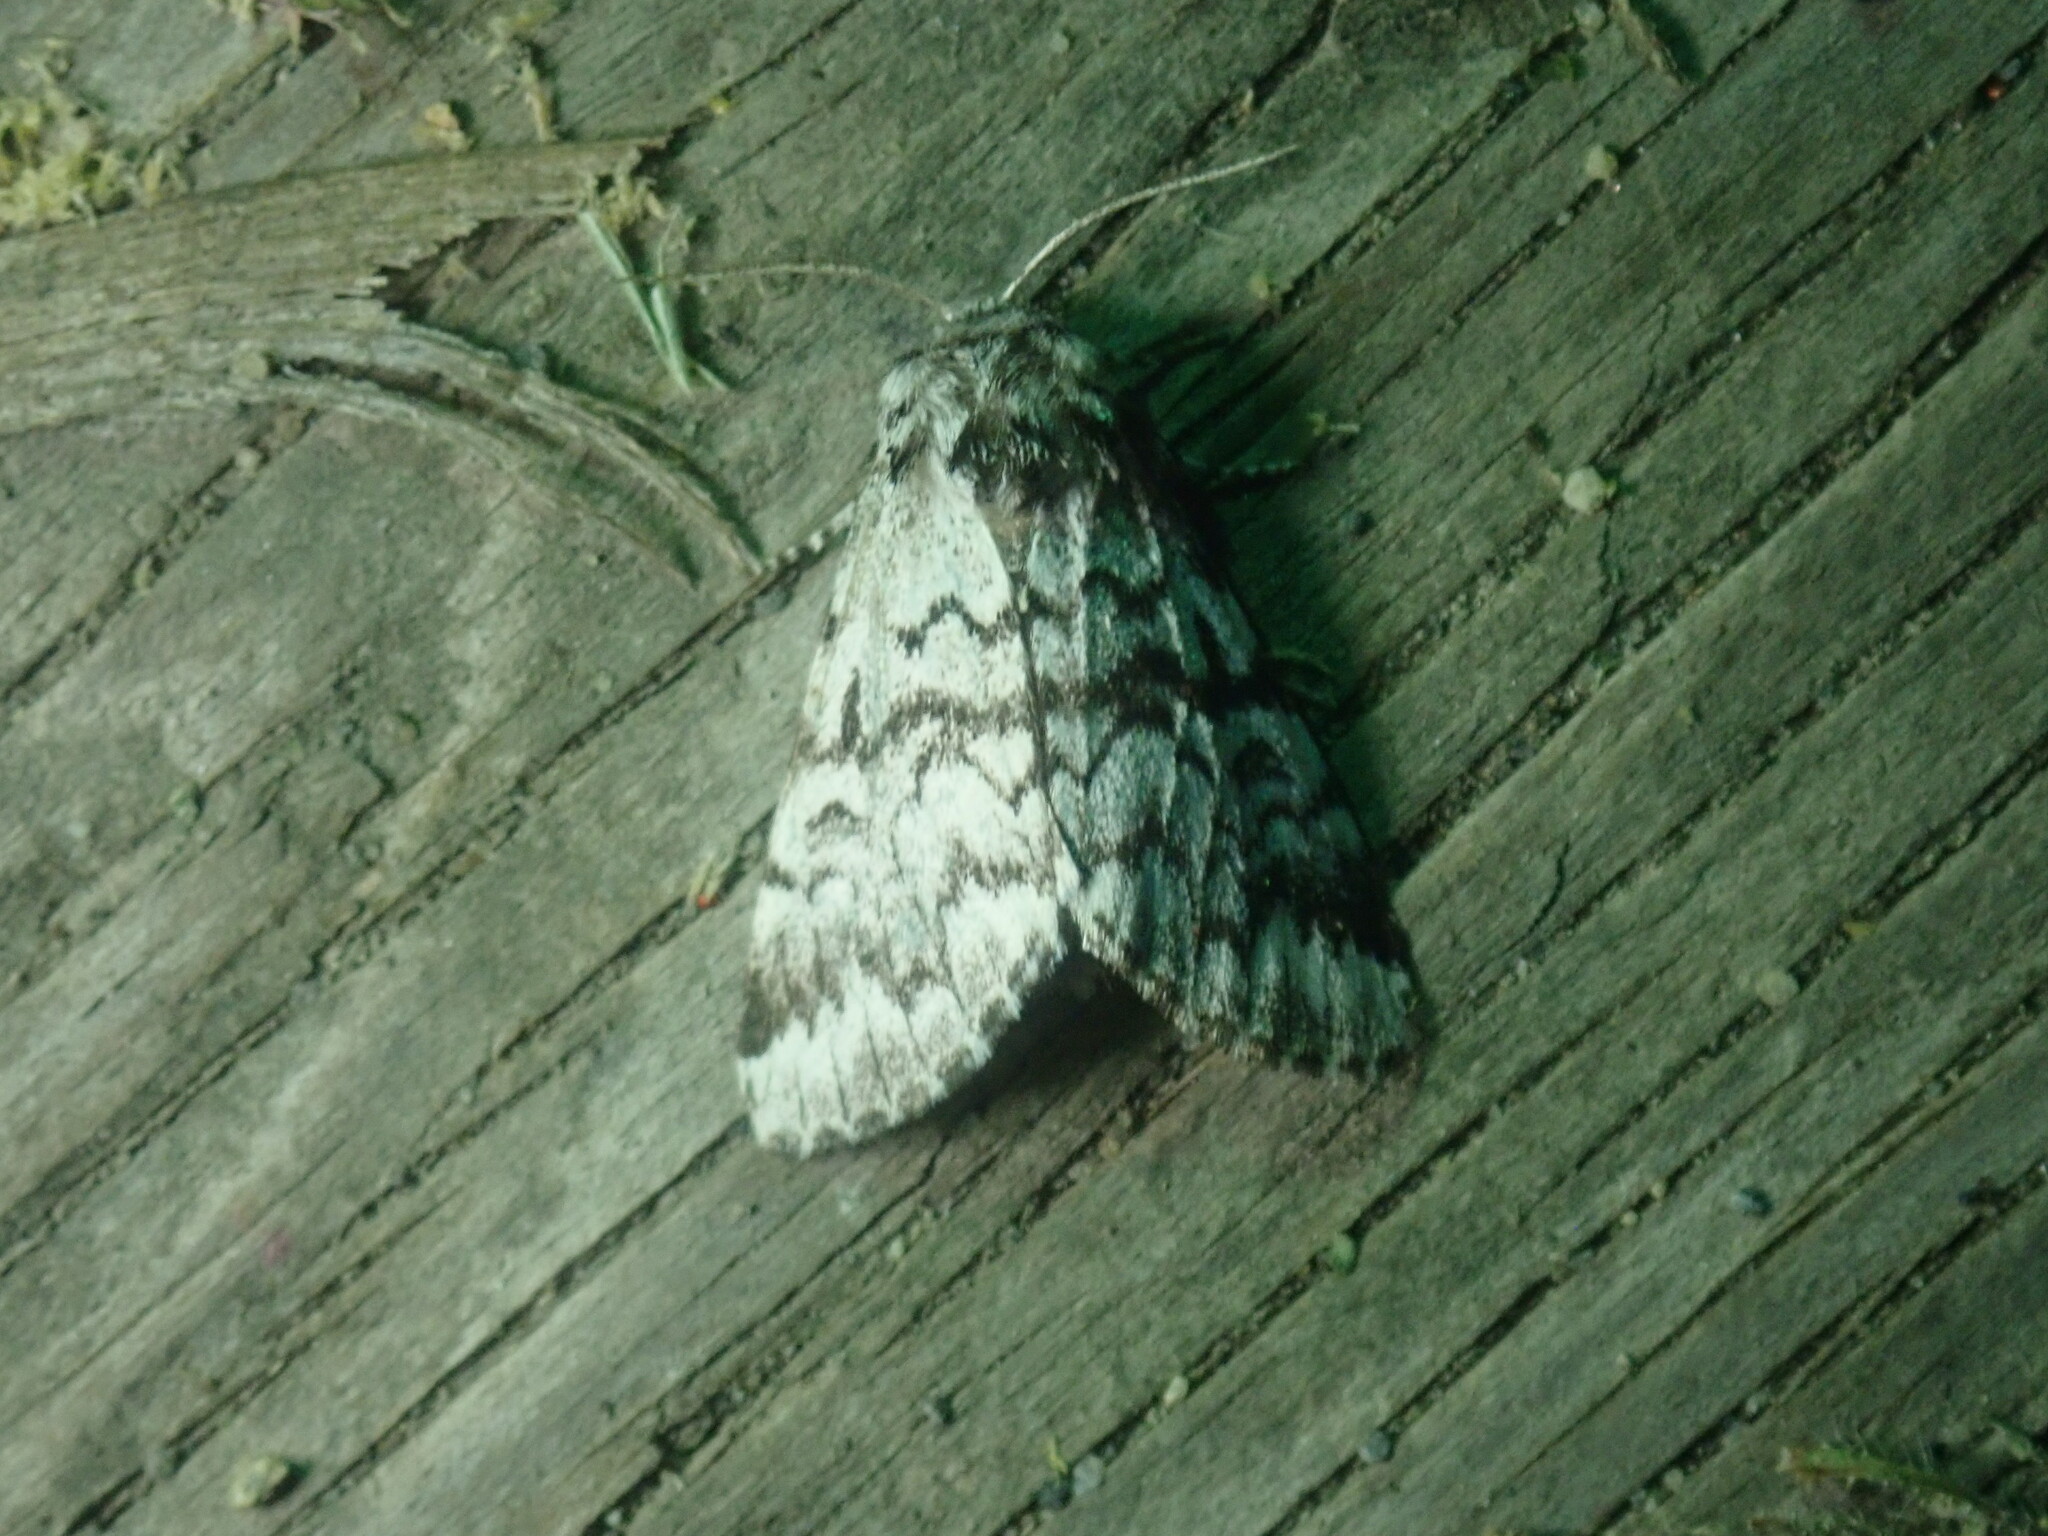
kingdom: Animalia
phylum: Arthropoda
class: Insecta
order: Lepidoptera
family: Noctuidae
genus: Panthea
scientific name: Panthea acronyctoides
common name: Black zigzag moth
